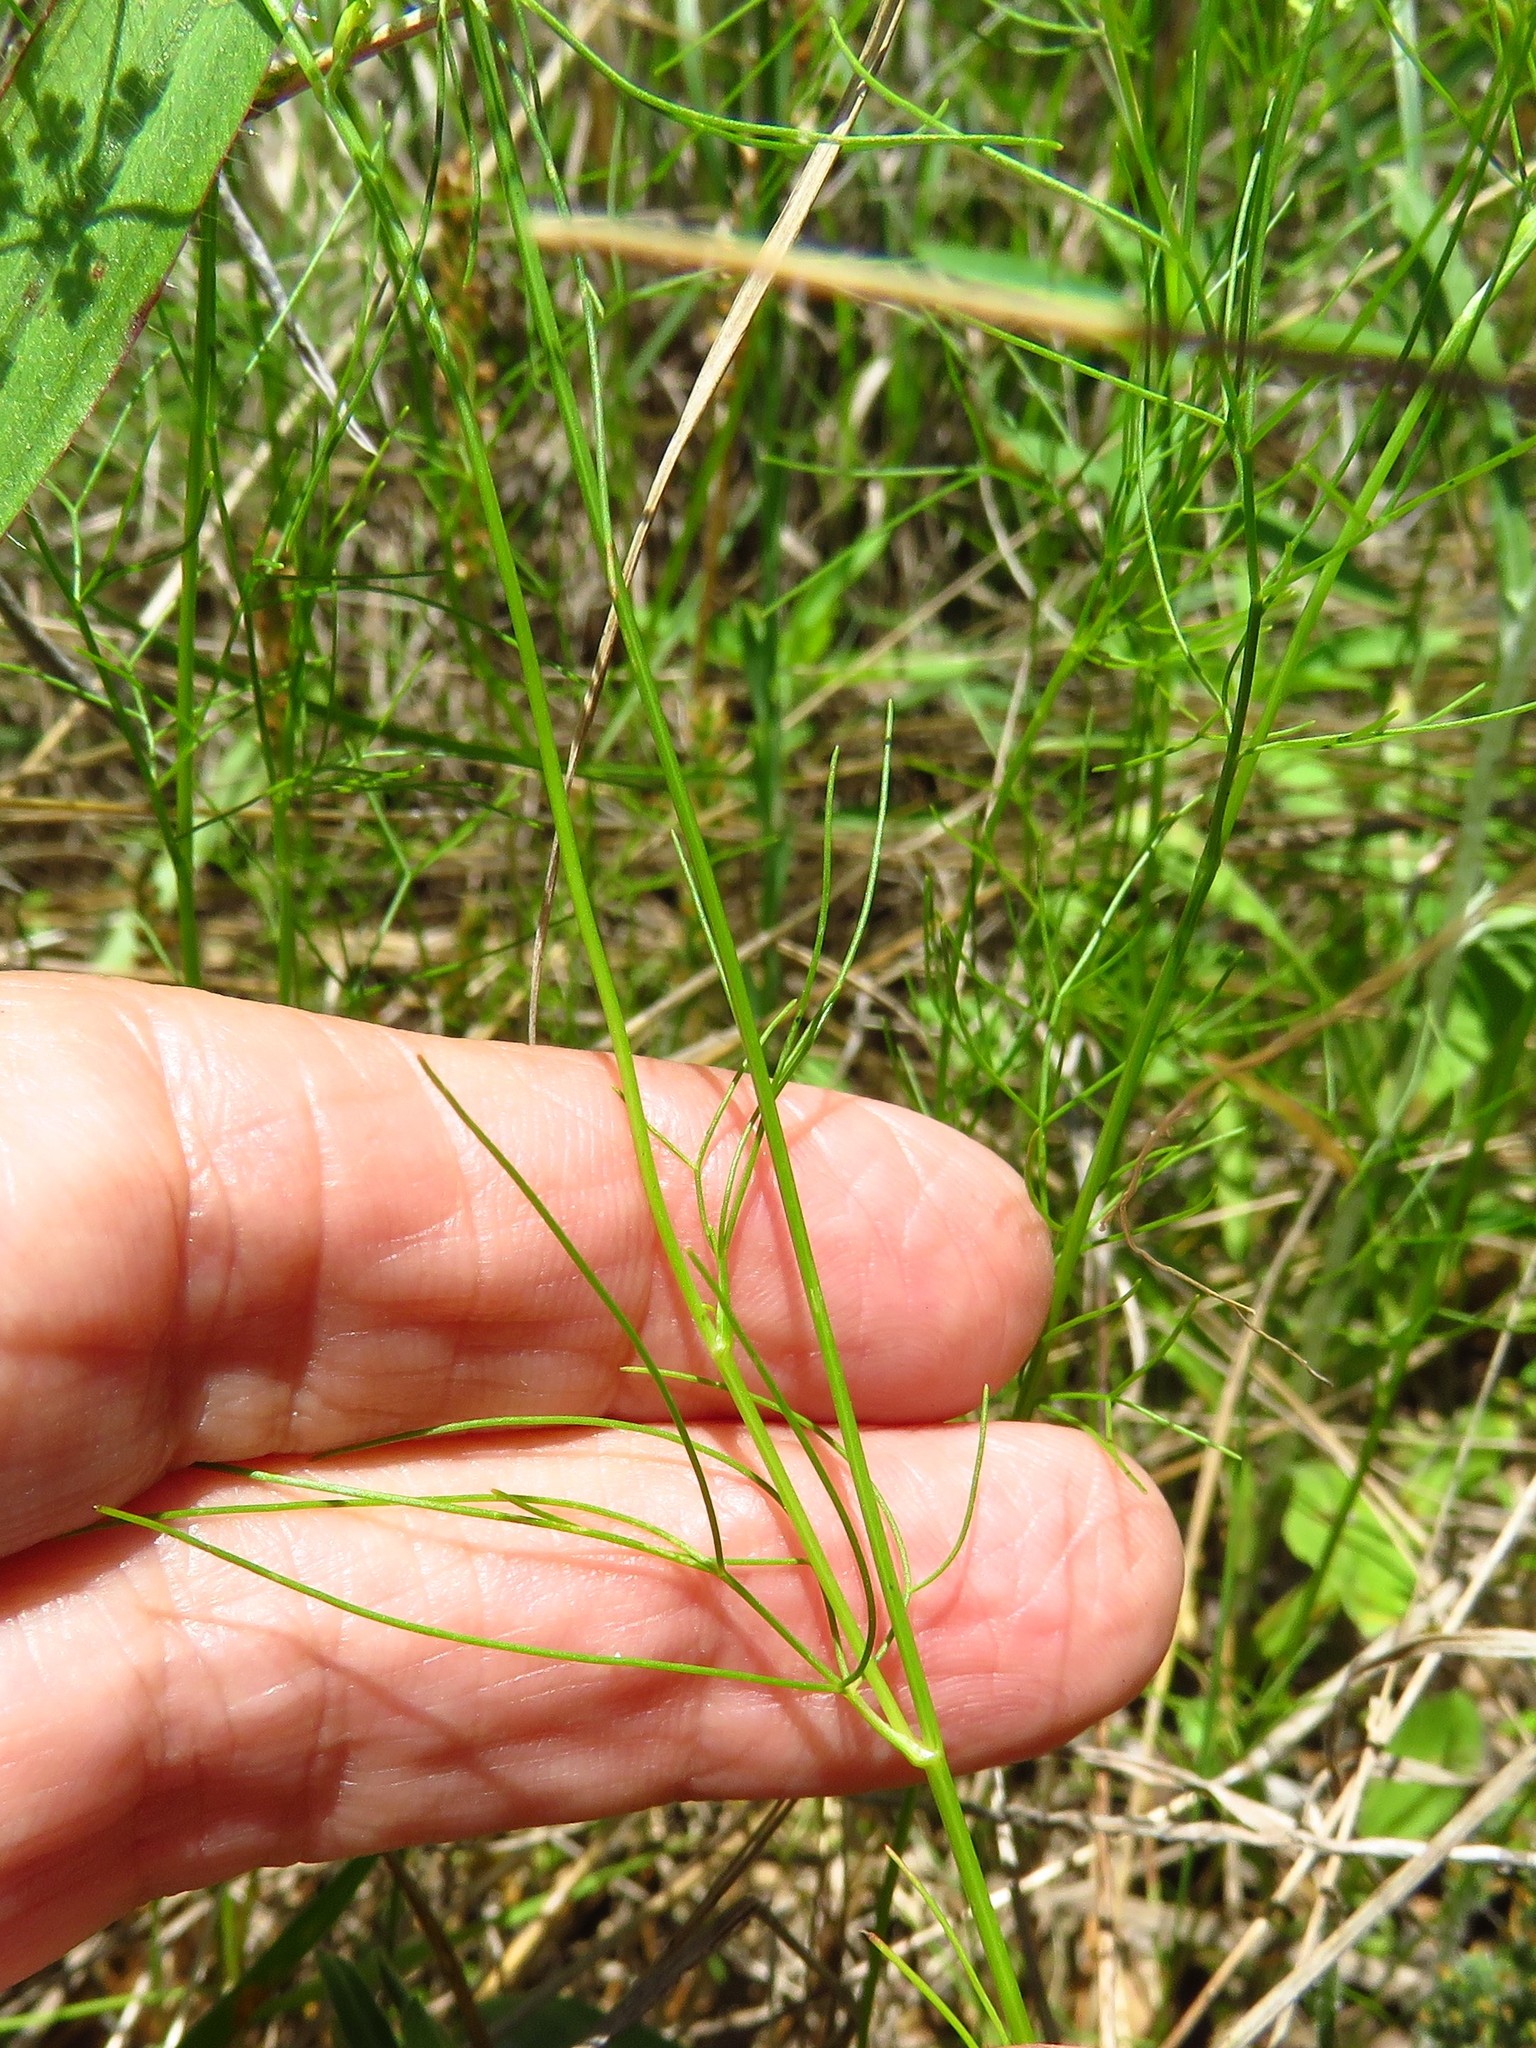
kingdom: Plantae
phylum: Tracheophyta
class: Magnoliopsida
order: Apiales
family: Apiaceae
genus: Ptilimnium
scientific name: Ptilimnium capillaceum
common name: Herbwilliam
